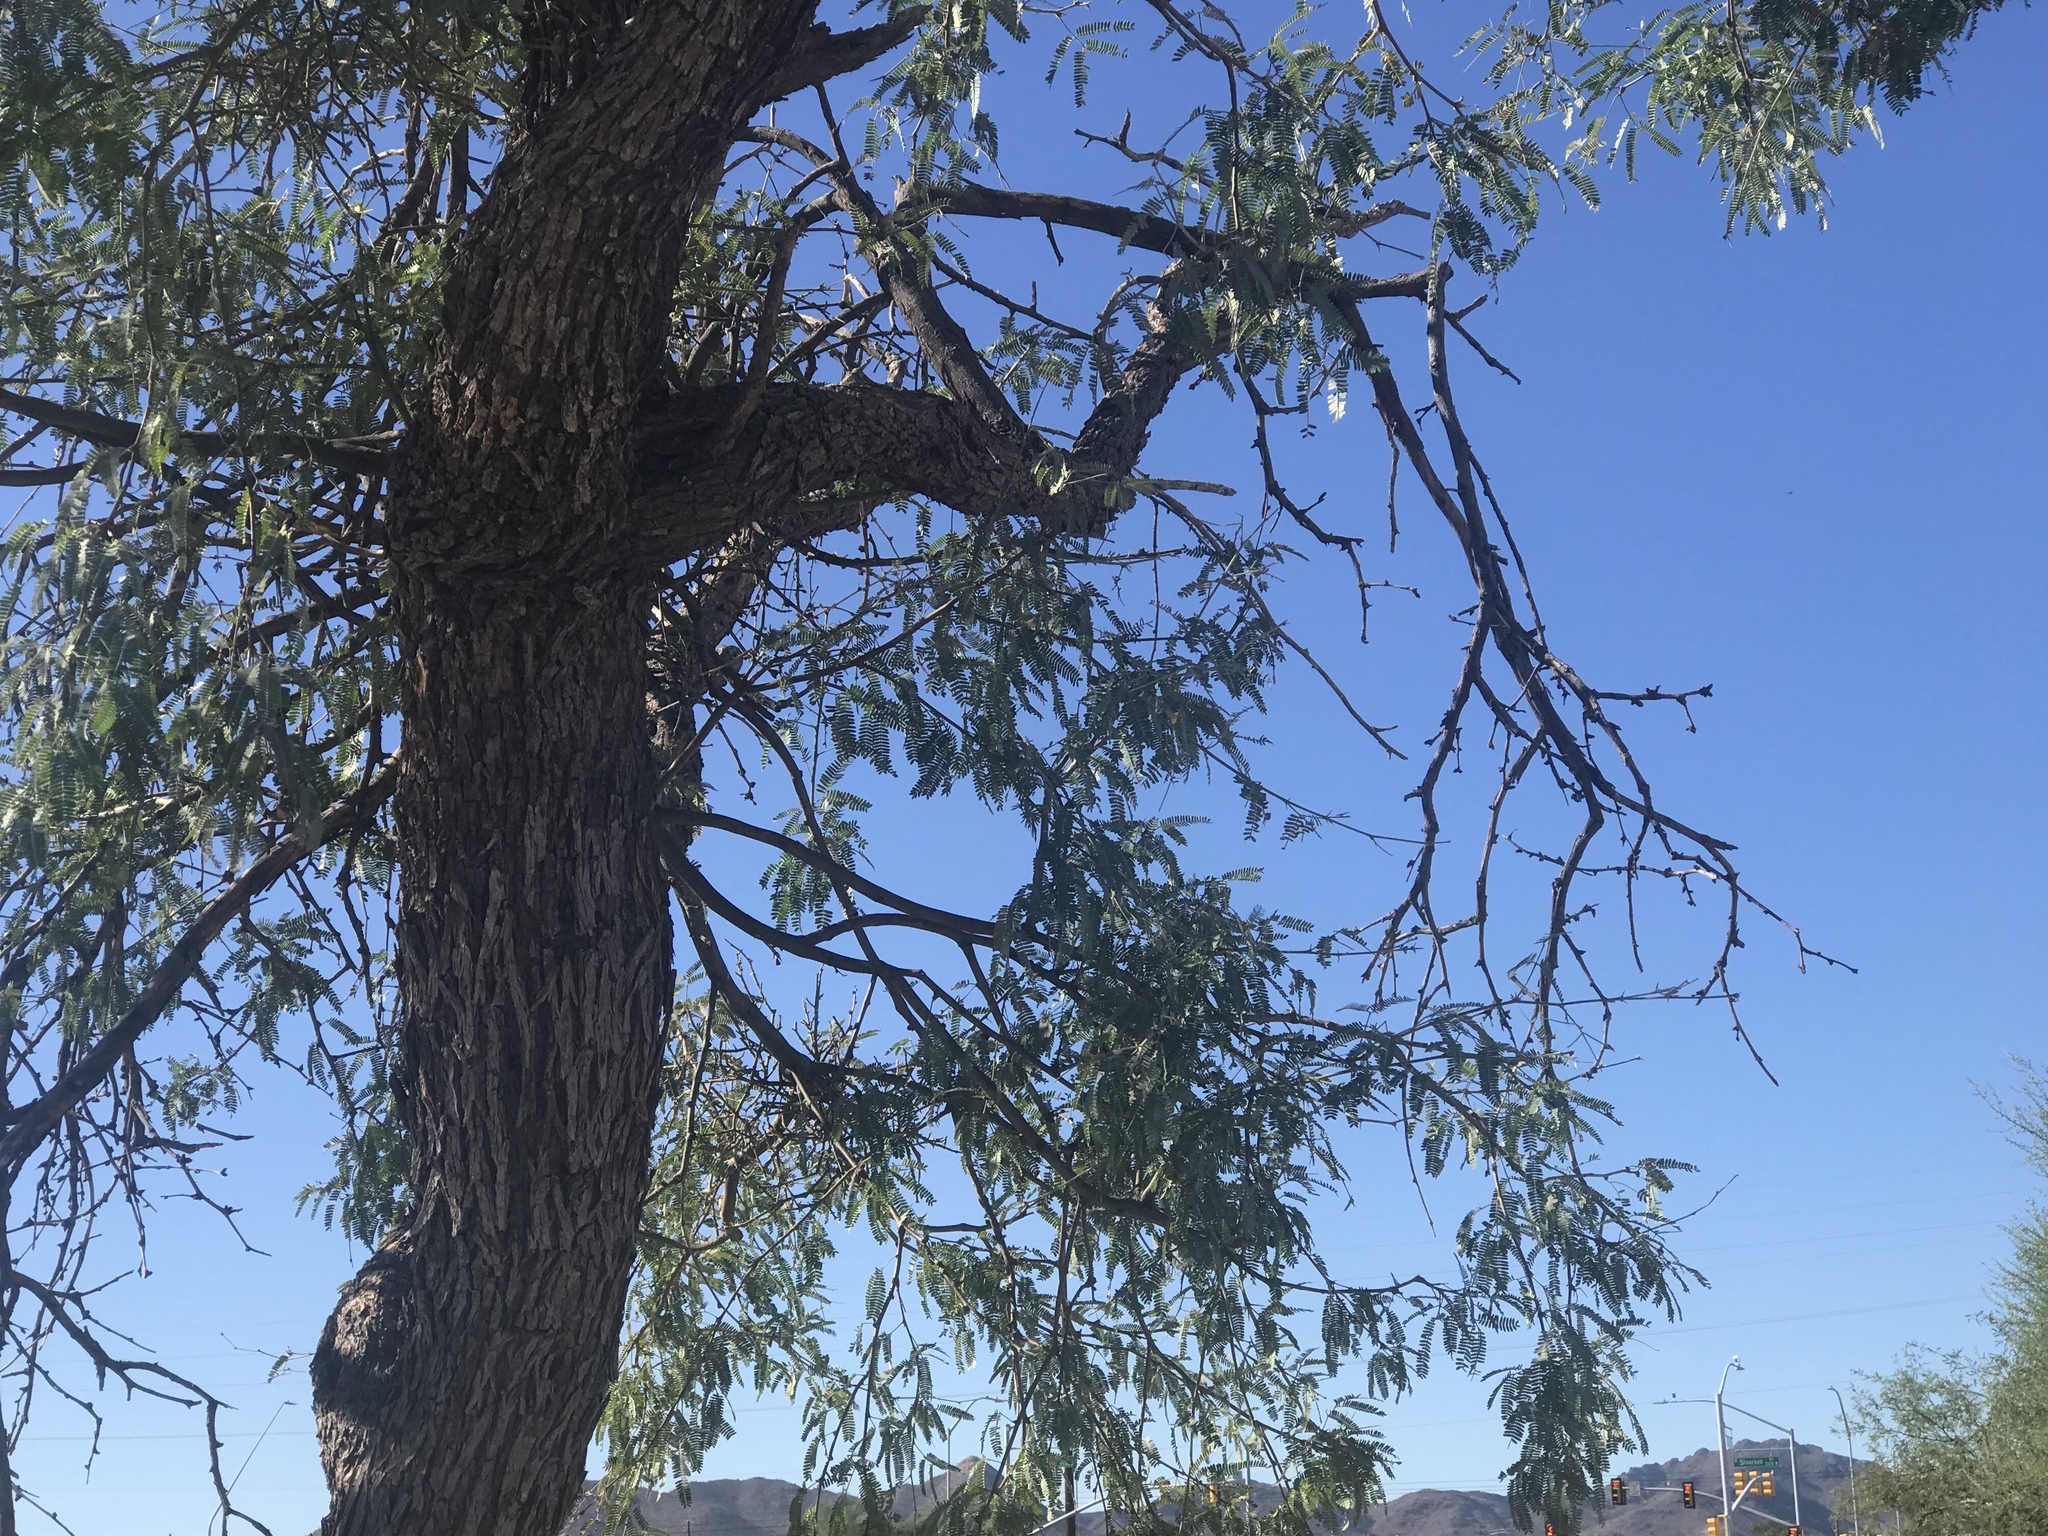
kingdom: Plantae
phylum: Tracheophyta
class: Magnoliopsida
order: Fabales
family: Fabaceae
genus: Prosopis
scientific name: Prosopis velutina
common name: Velvet mesquite
